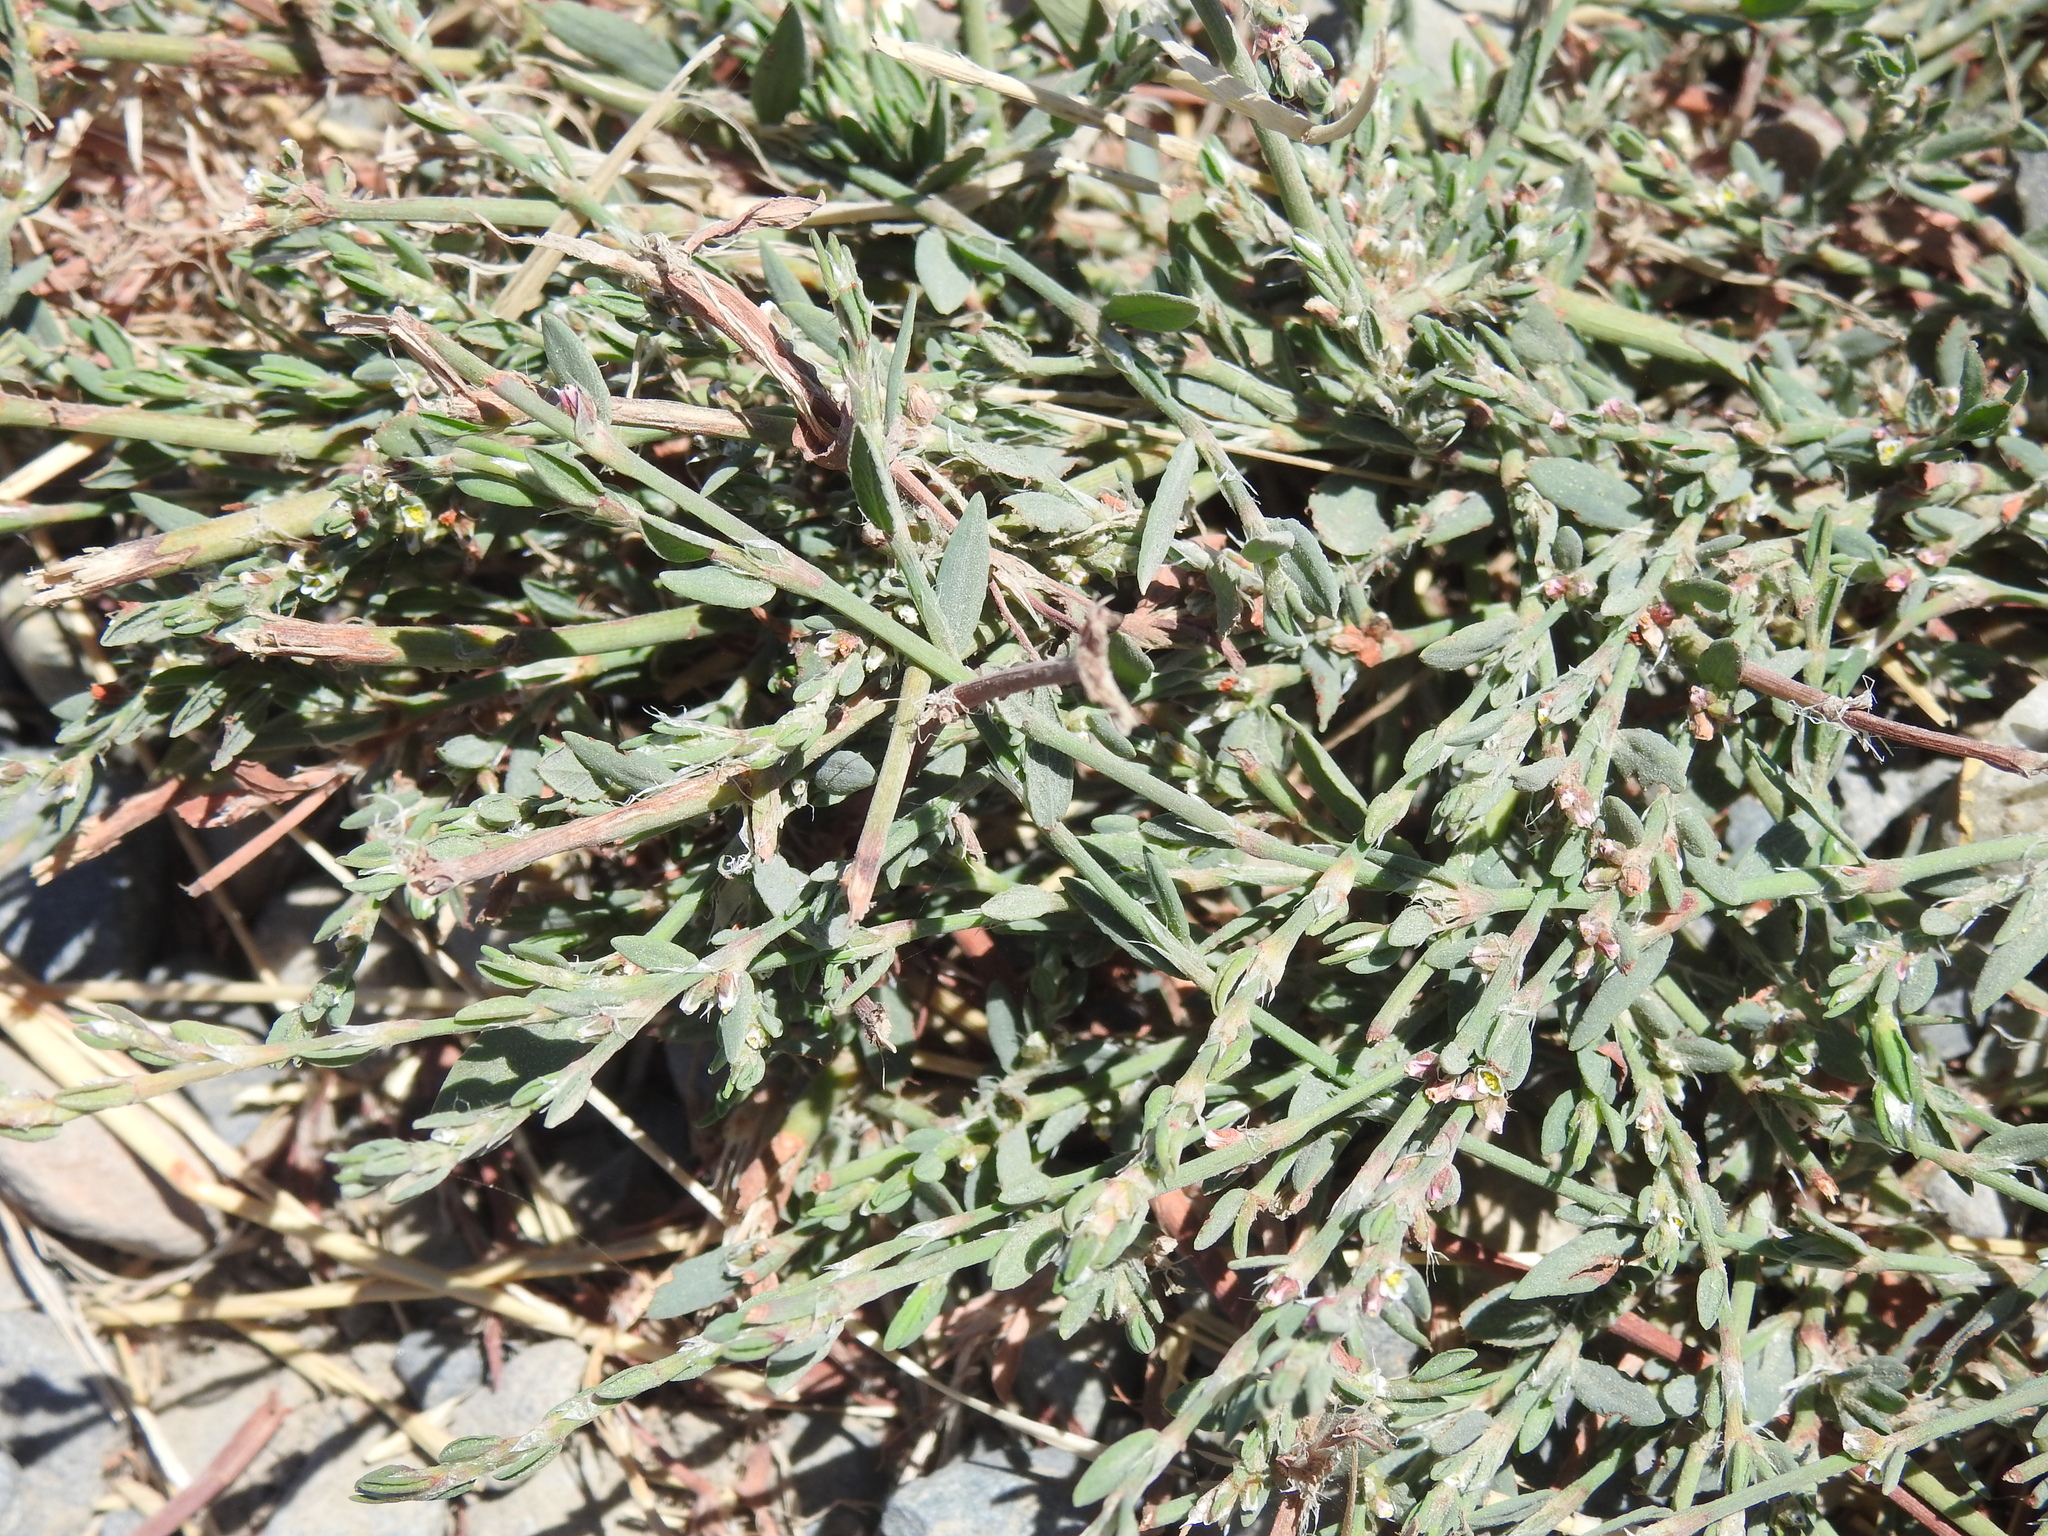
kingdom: Plantae
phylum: Tracheophyta
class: Magnoliopsida
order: Caryophyllales
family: Polygonaceae
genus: Polygonum
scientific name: Polygonum aviculare
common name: Prostrate knotweed
